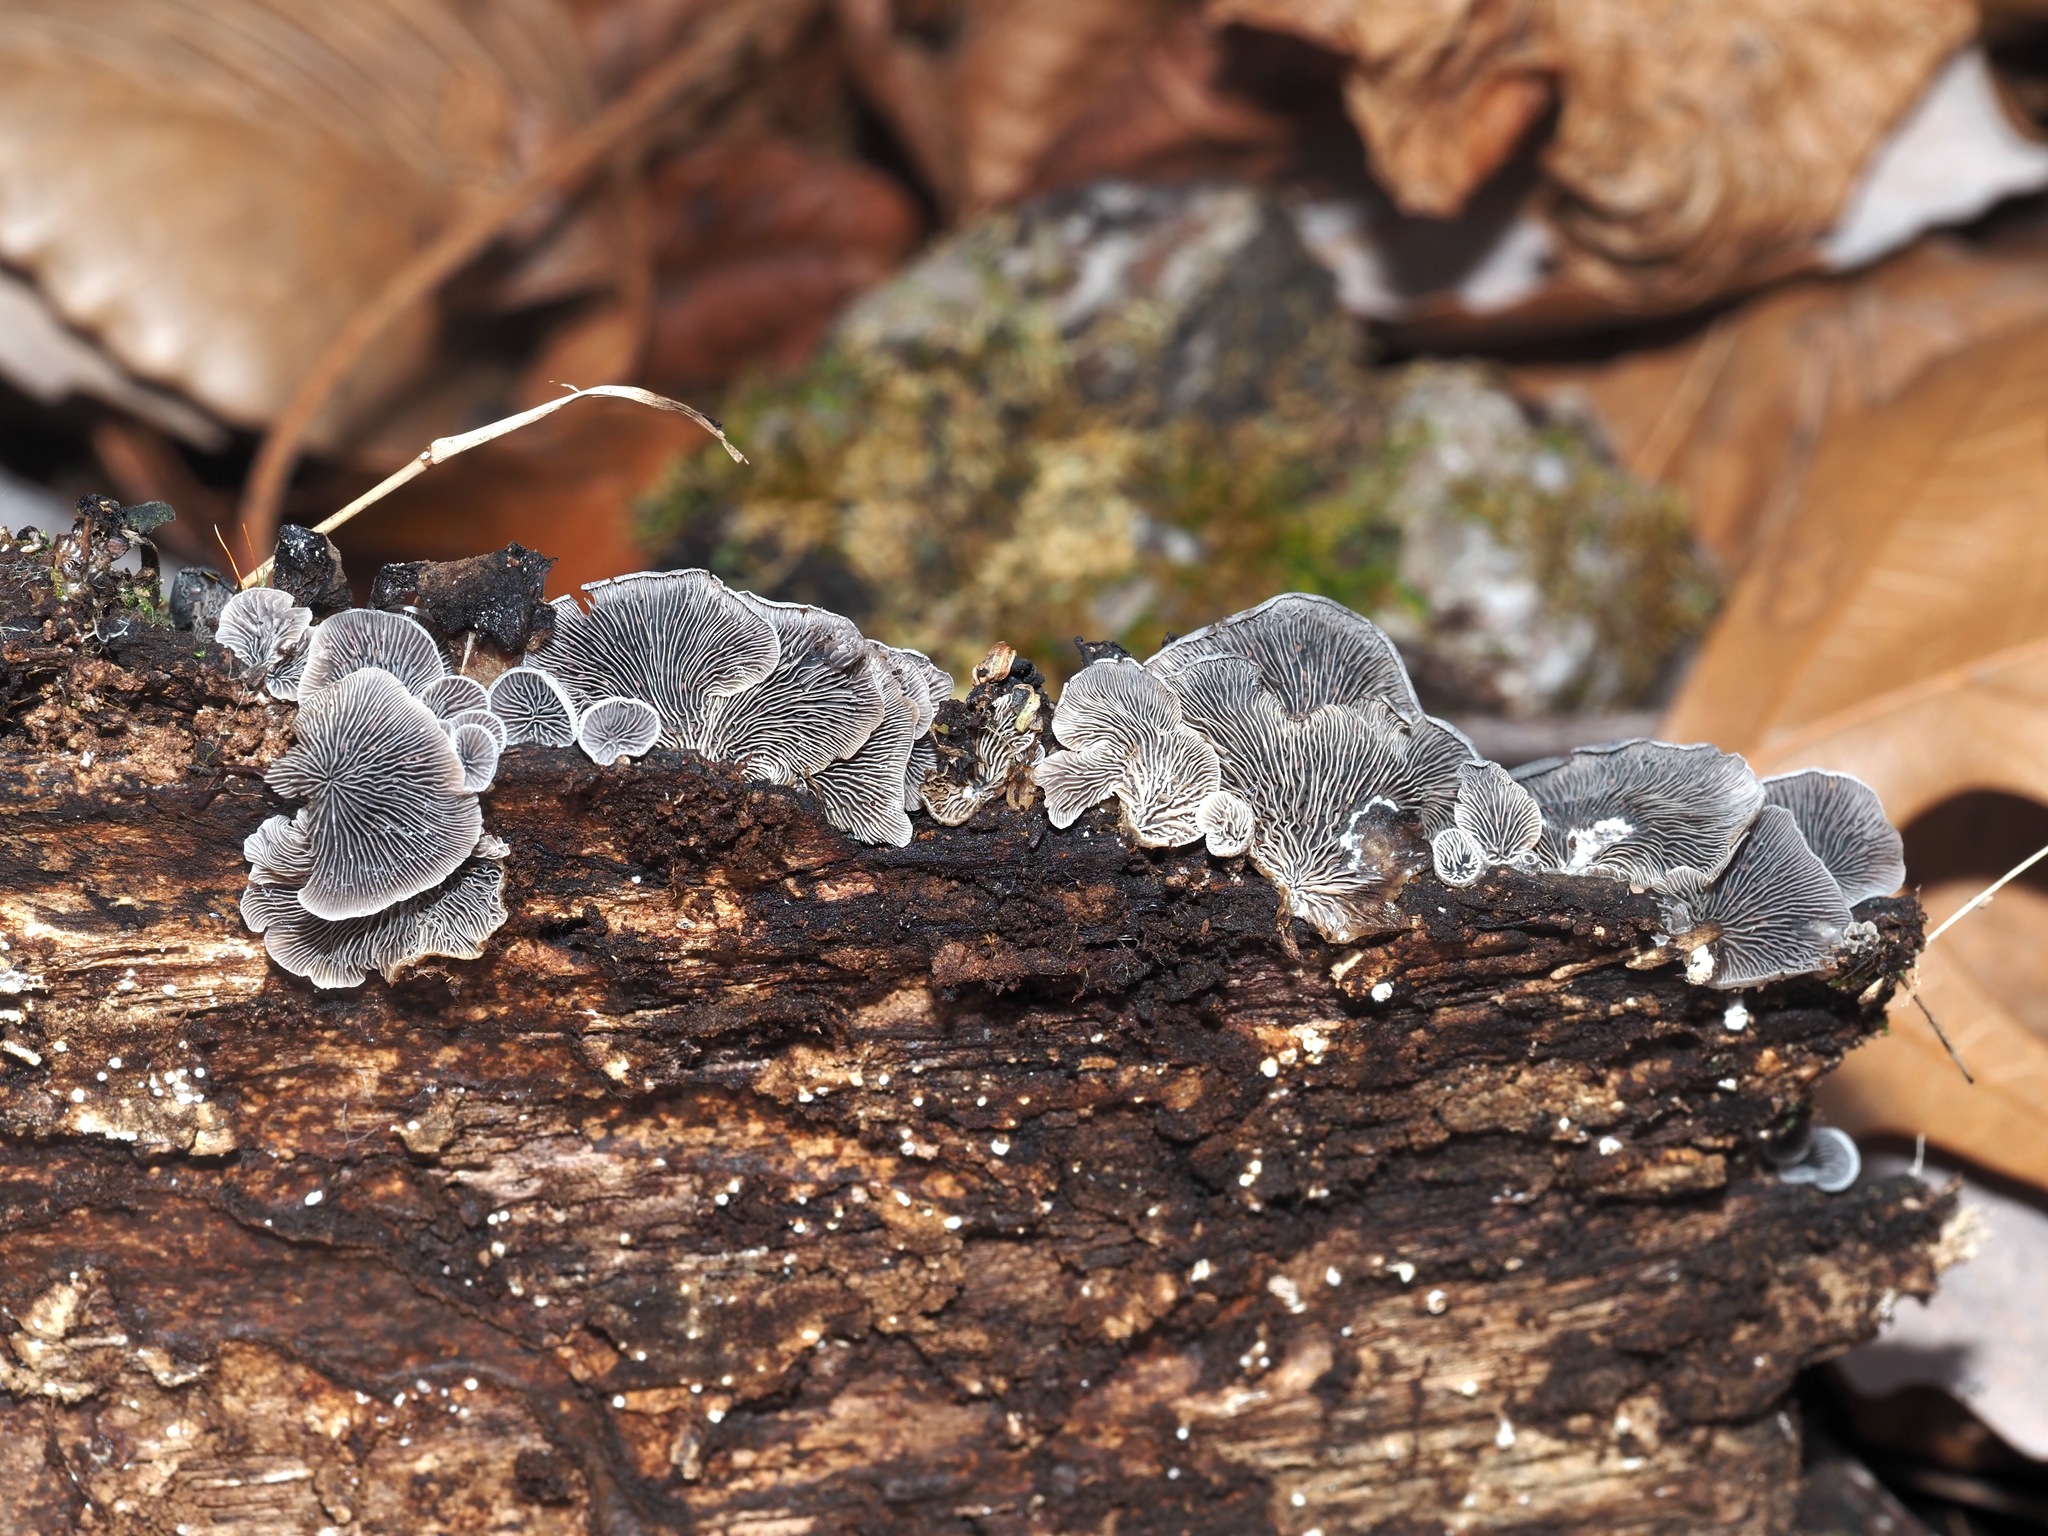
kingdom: Fungi
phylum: Basidiomycota
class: Agaricomycetes
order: Agaricales
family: Pleurotaceae
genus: Resupinatus
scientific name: Resupinatus applicatus
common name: Smoked oysterling
